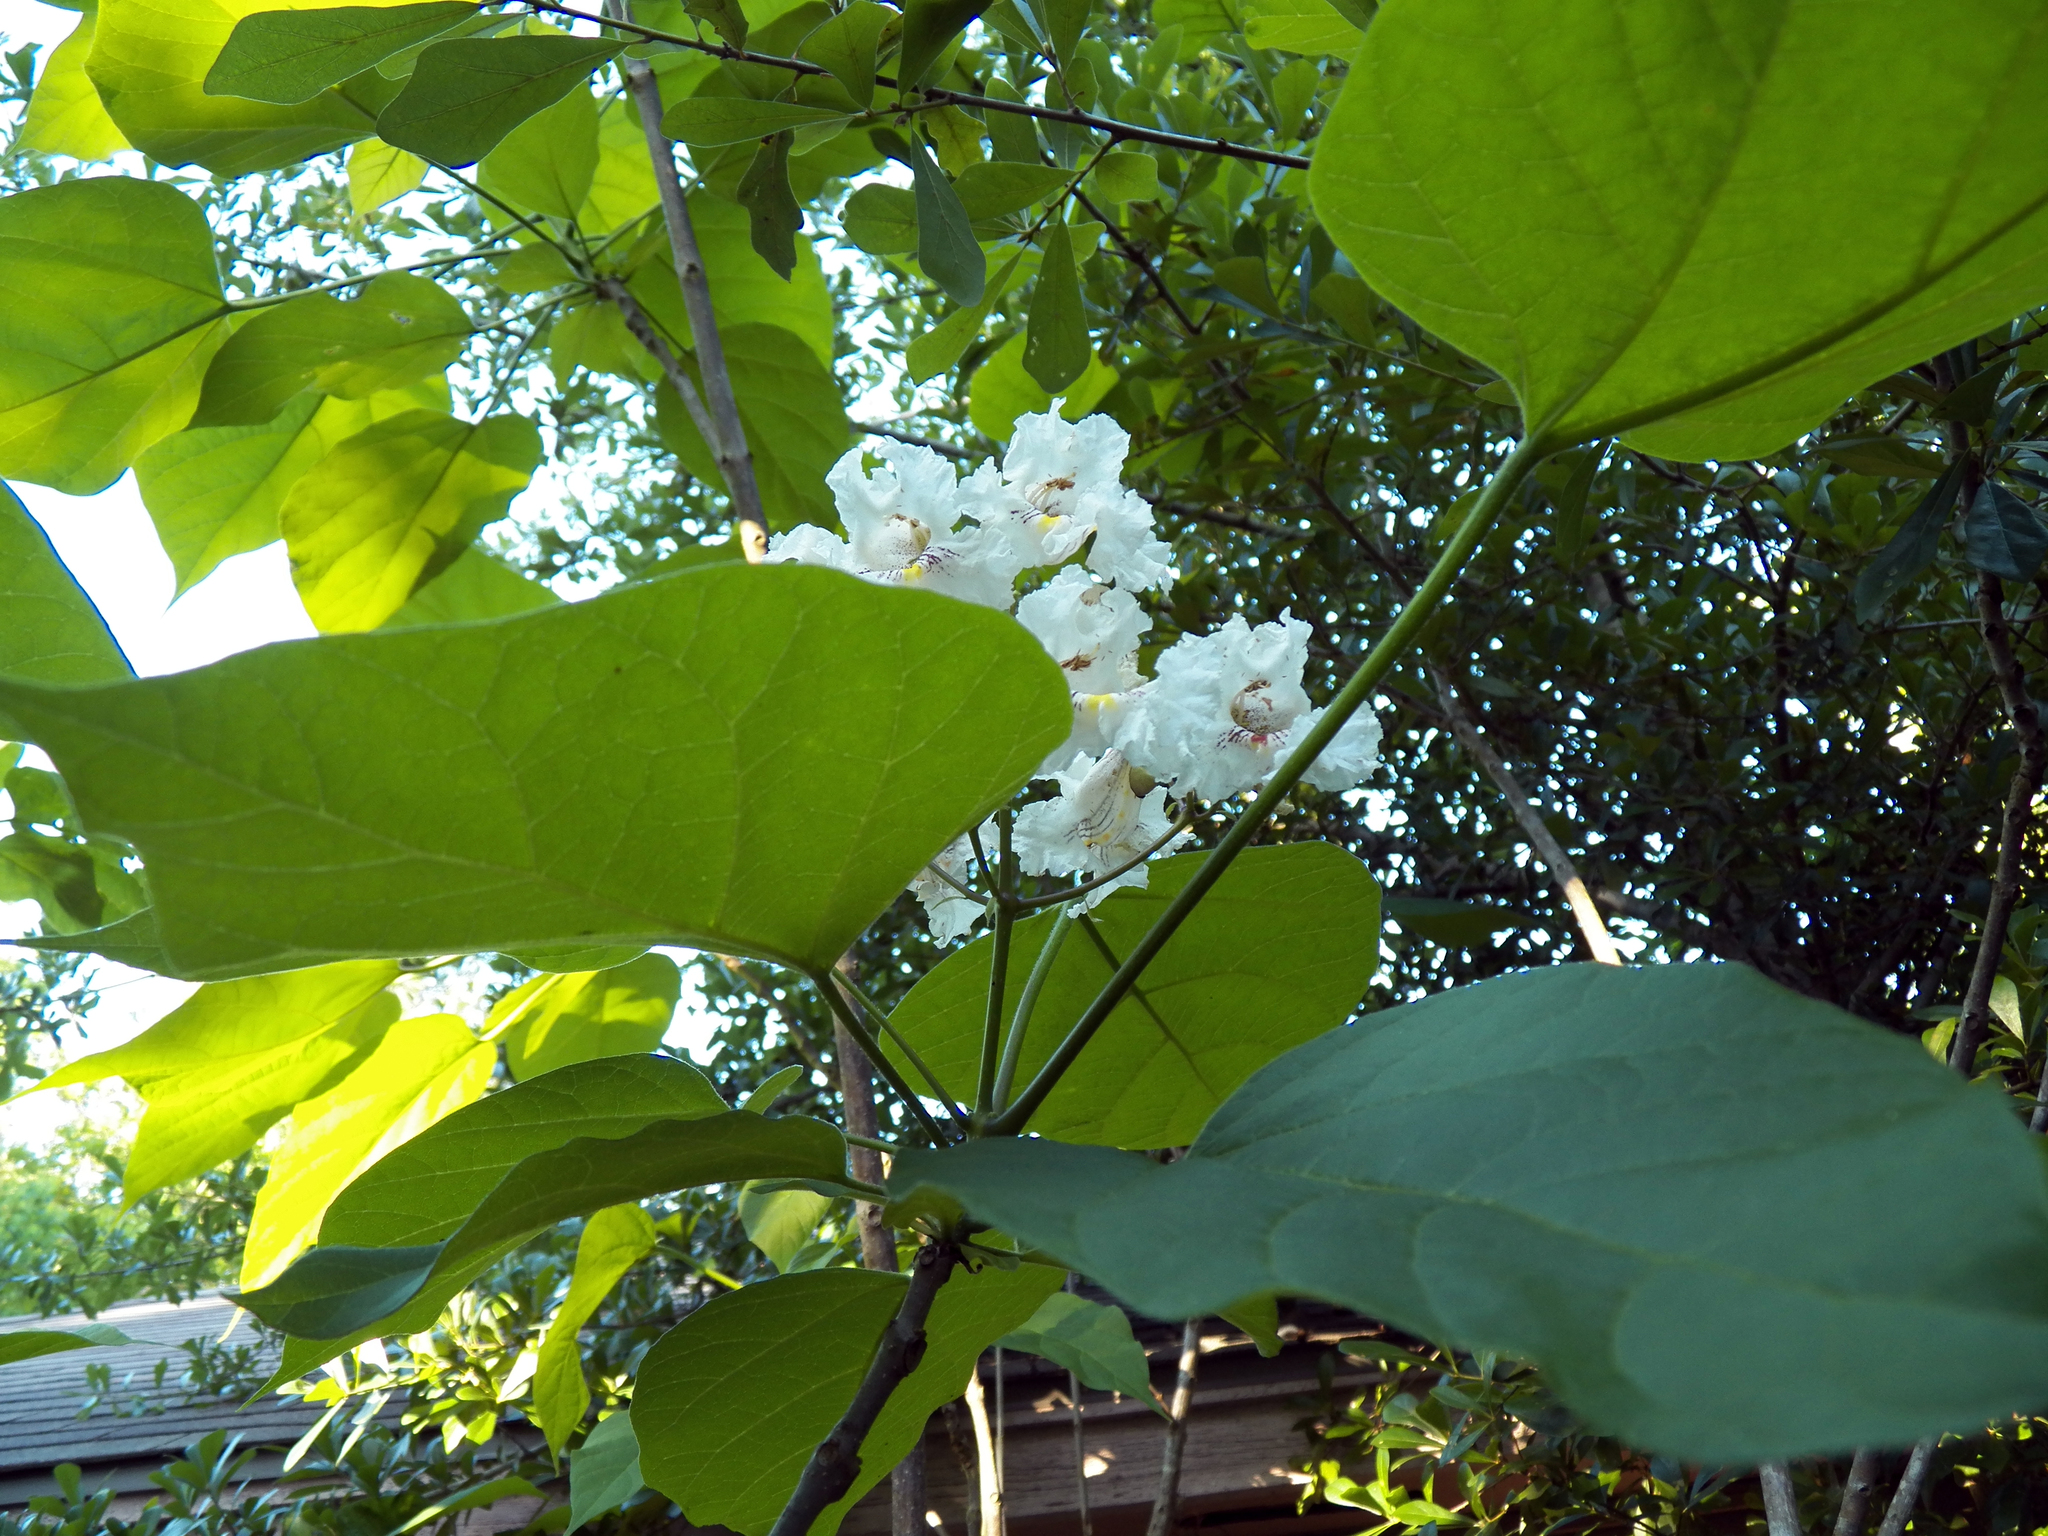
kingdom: Plantae
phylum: Tracheophyta
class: Magnoliopsida
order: Lamiales
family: Bignoniaceae
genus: Catalpa
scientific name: Catalpa speciosa
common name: Northern catalpa
